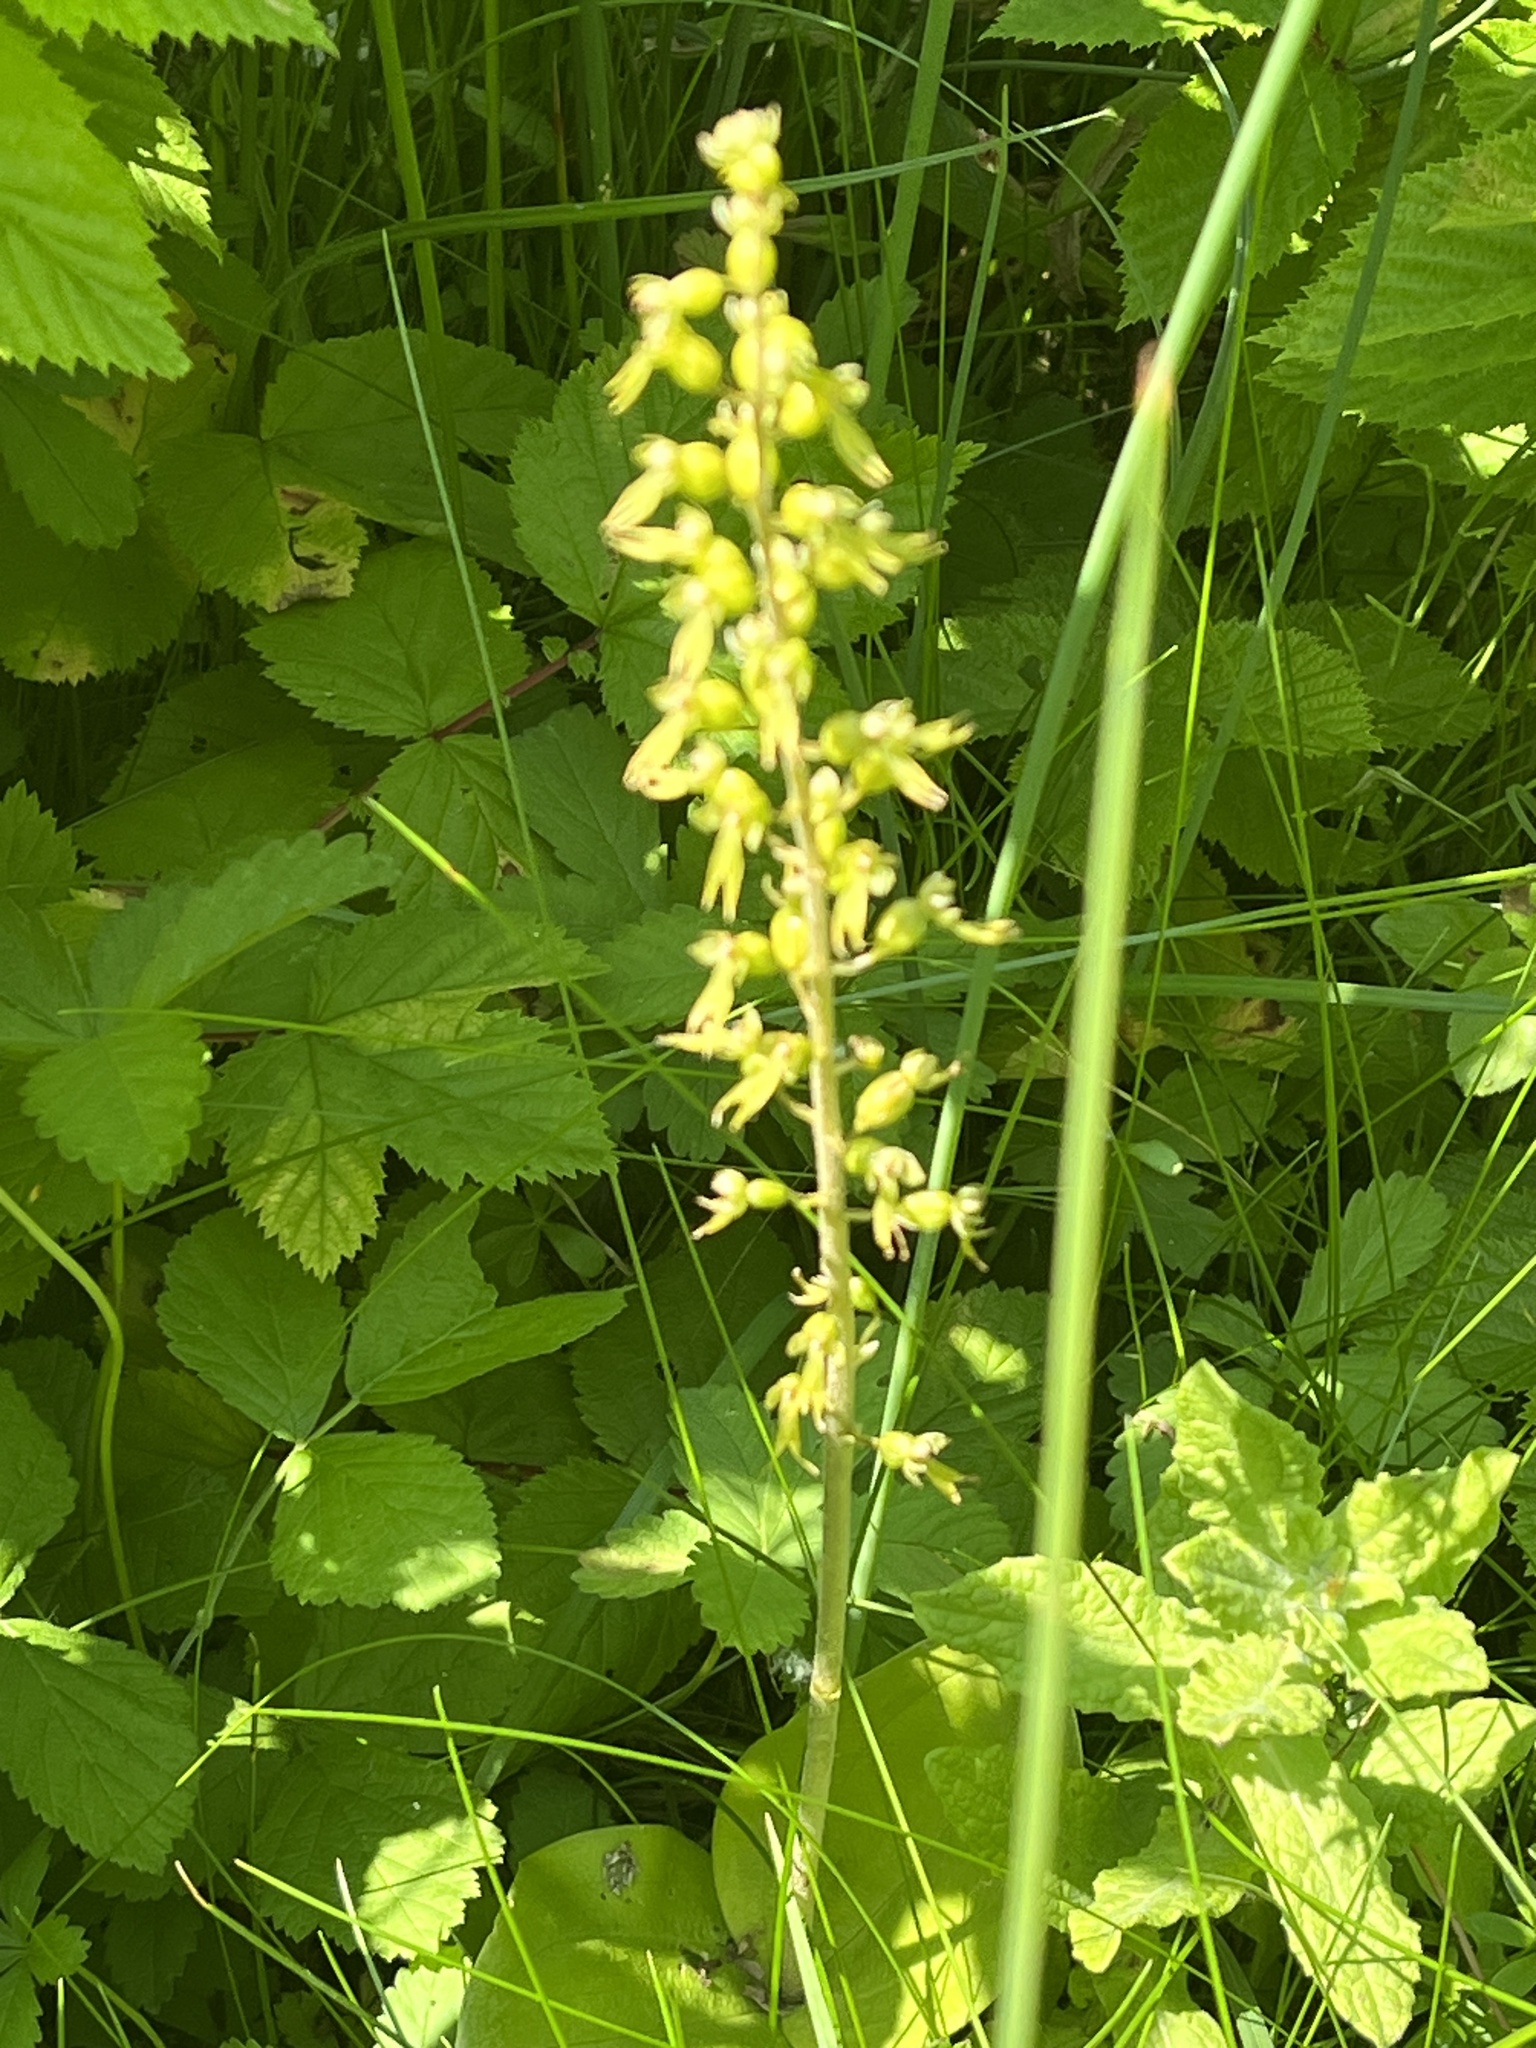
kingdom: Plantae
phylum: Tracheophyta
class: Liliopsida
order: Asparagales
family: Orchidaceae
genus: Neottia
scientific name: Neottia ovata
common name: Common twayblade
